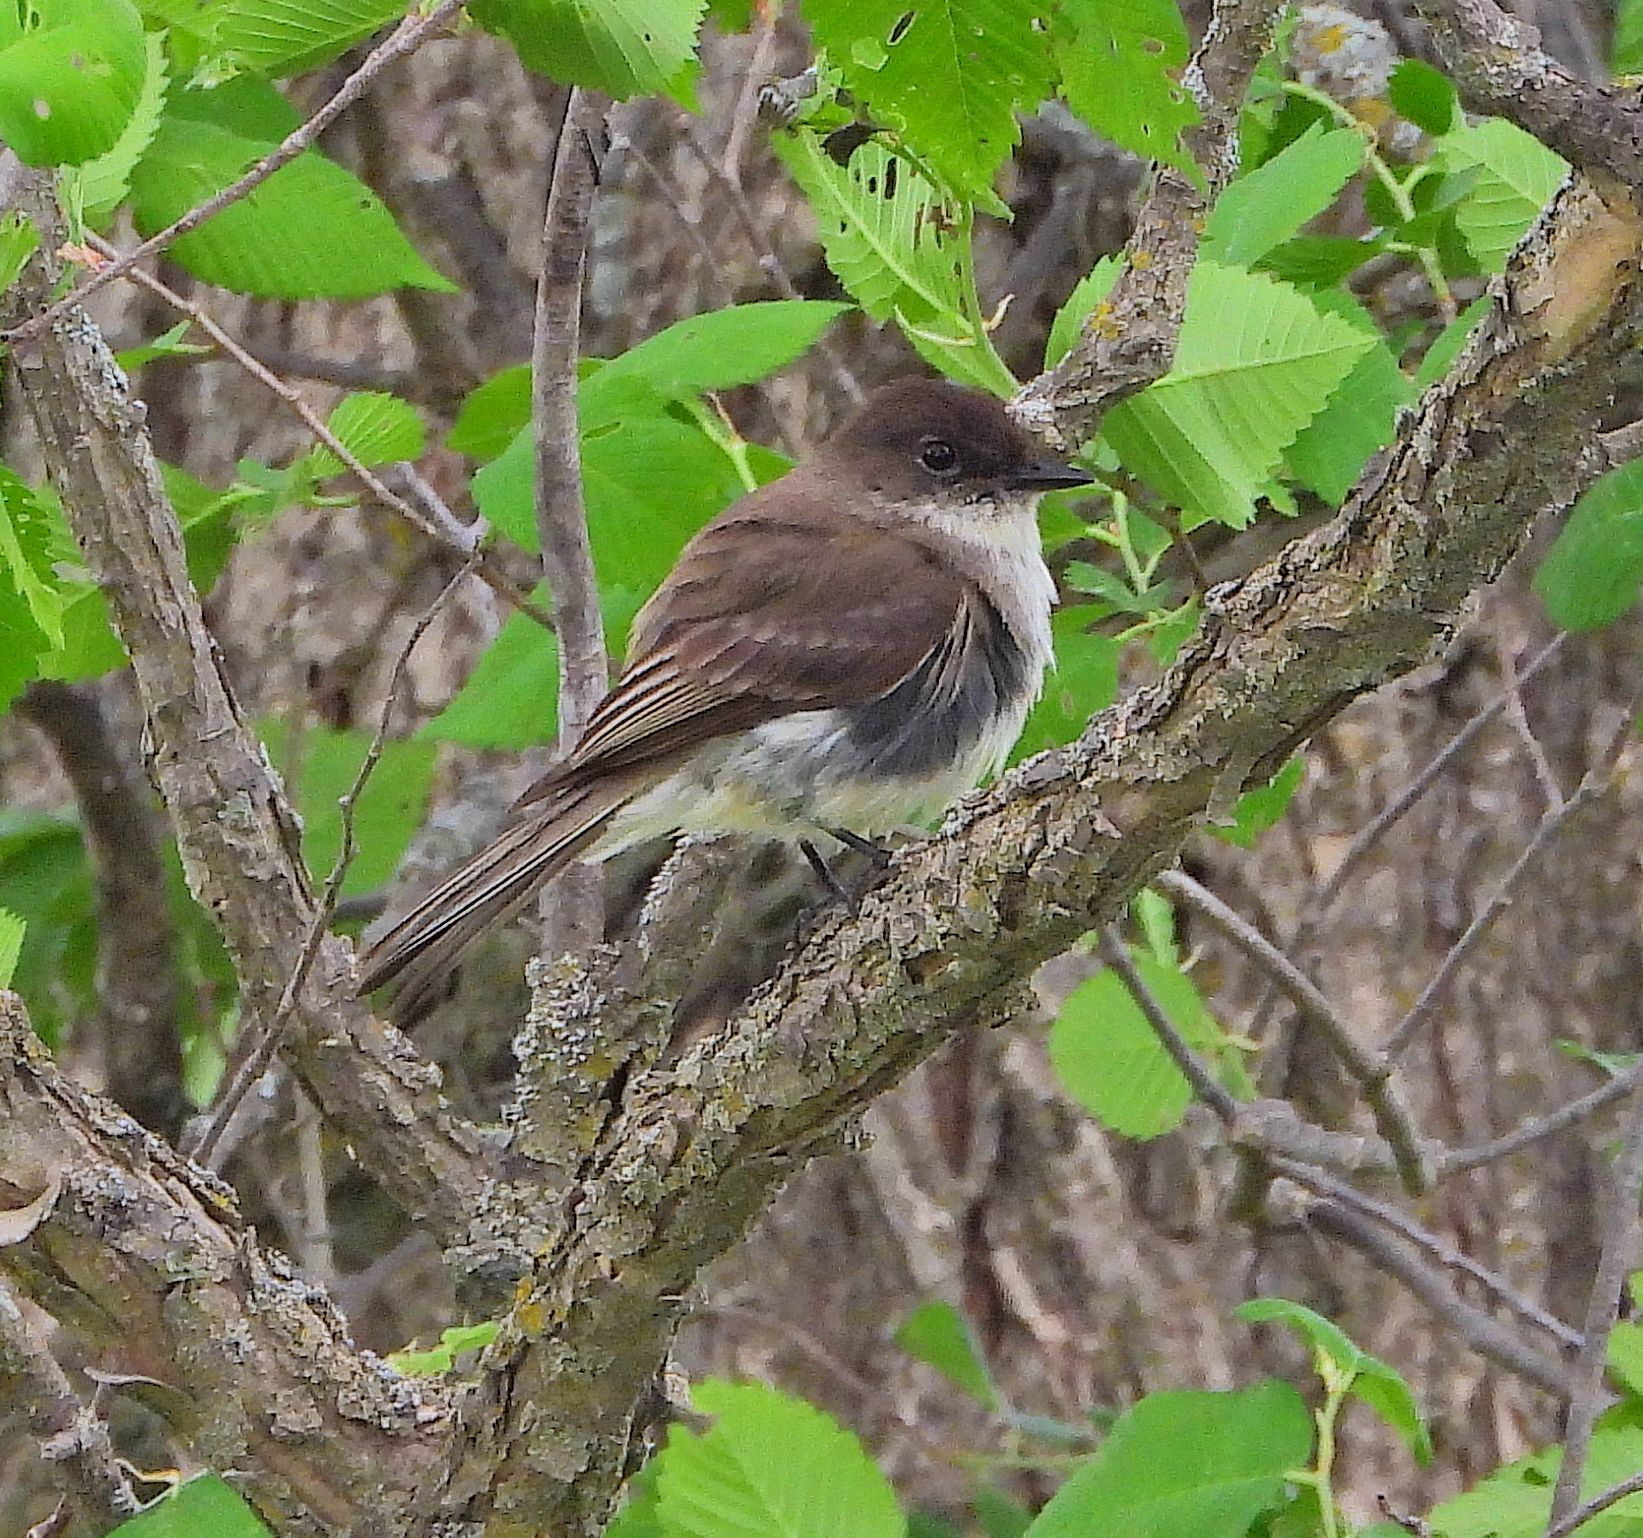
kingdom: Animalia
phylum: Chordata
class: Aves
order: Passeriformes
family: Tyrannidae
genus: Sayornis
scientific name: Sayornis phoebe
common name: Eastern phoebe
